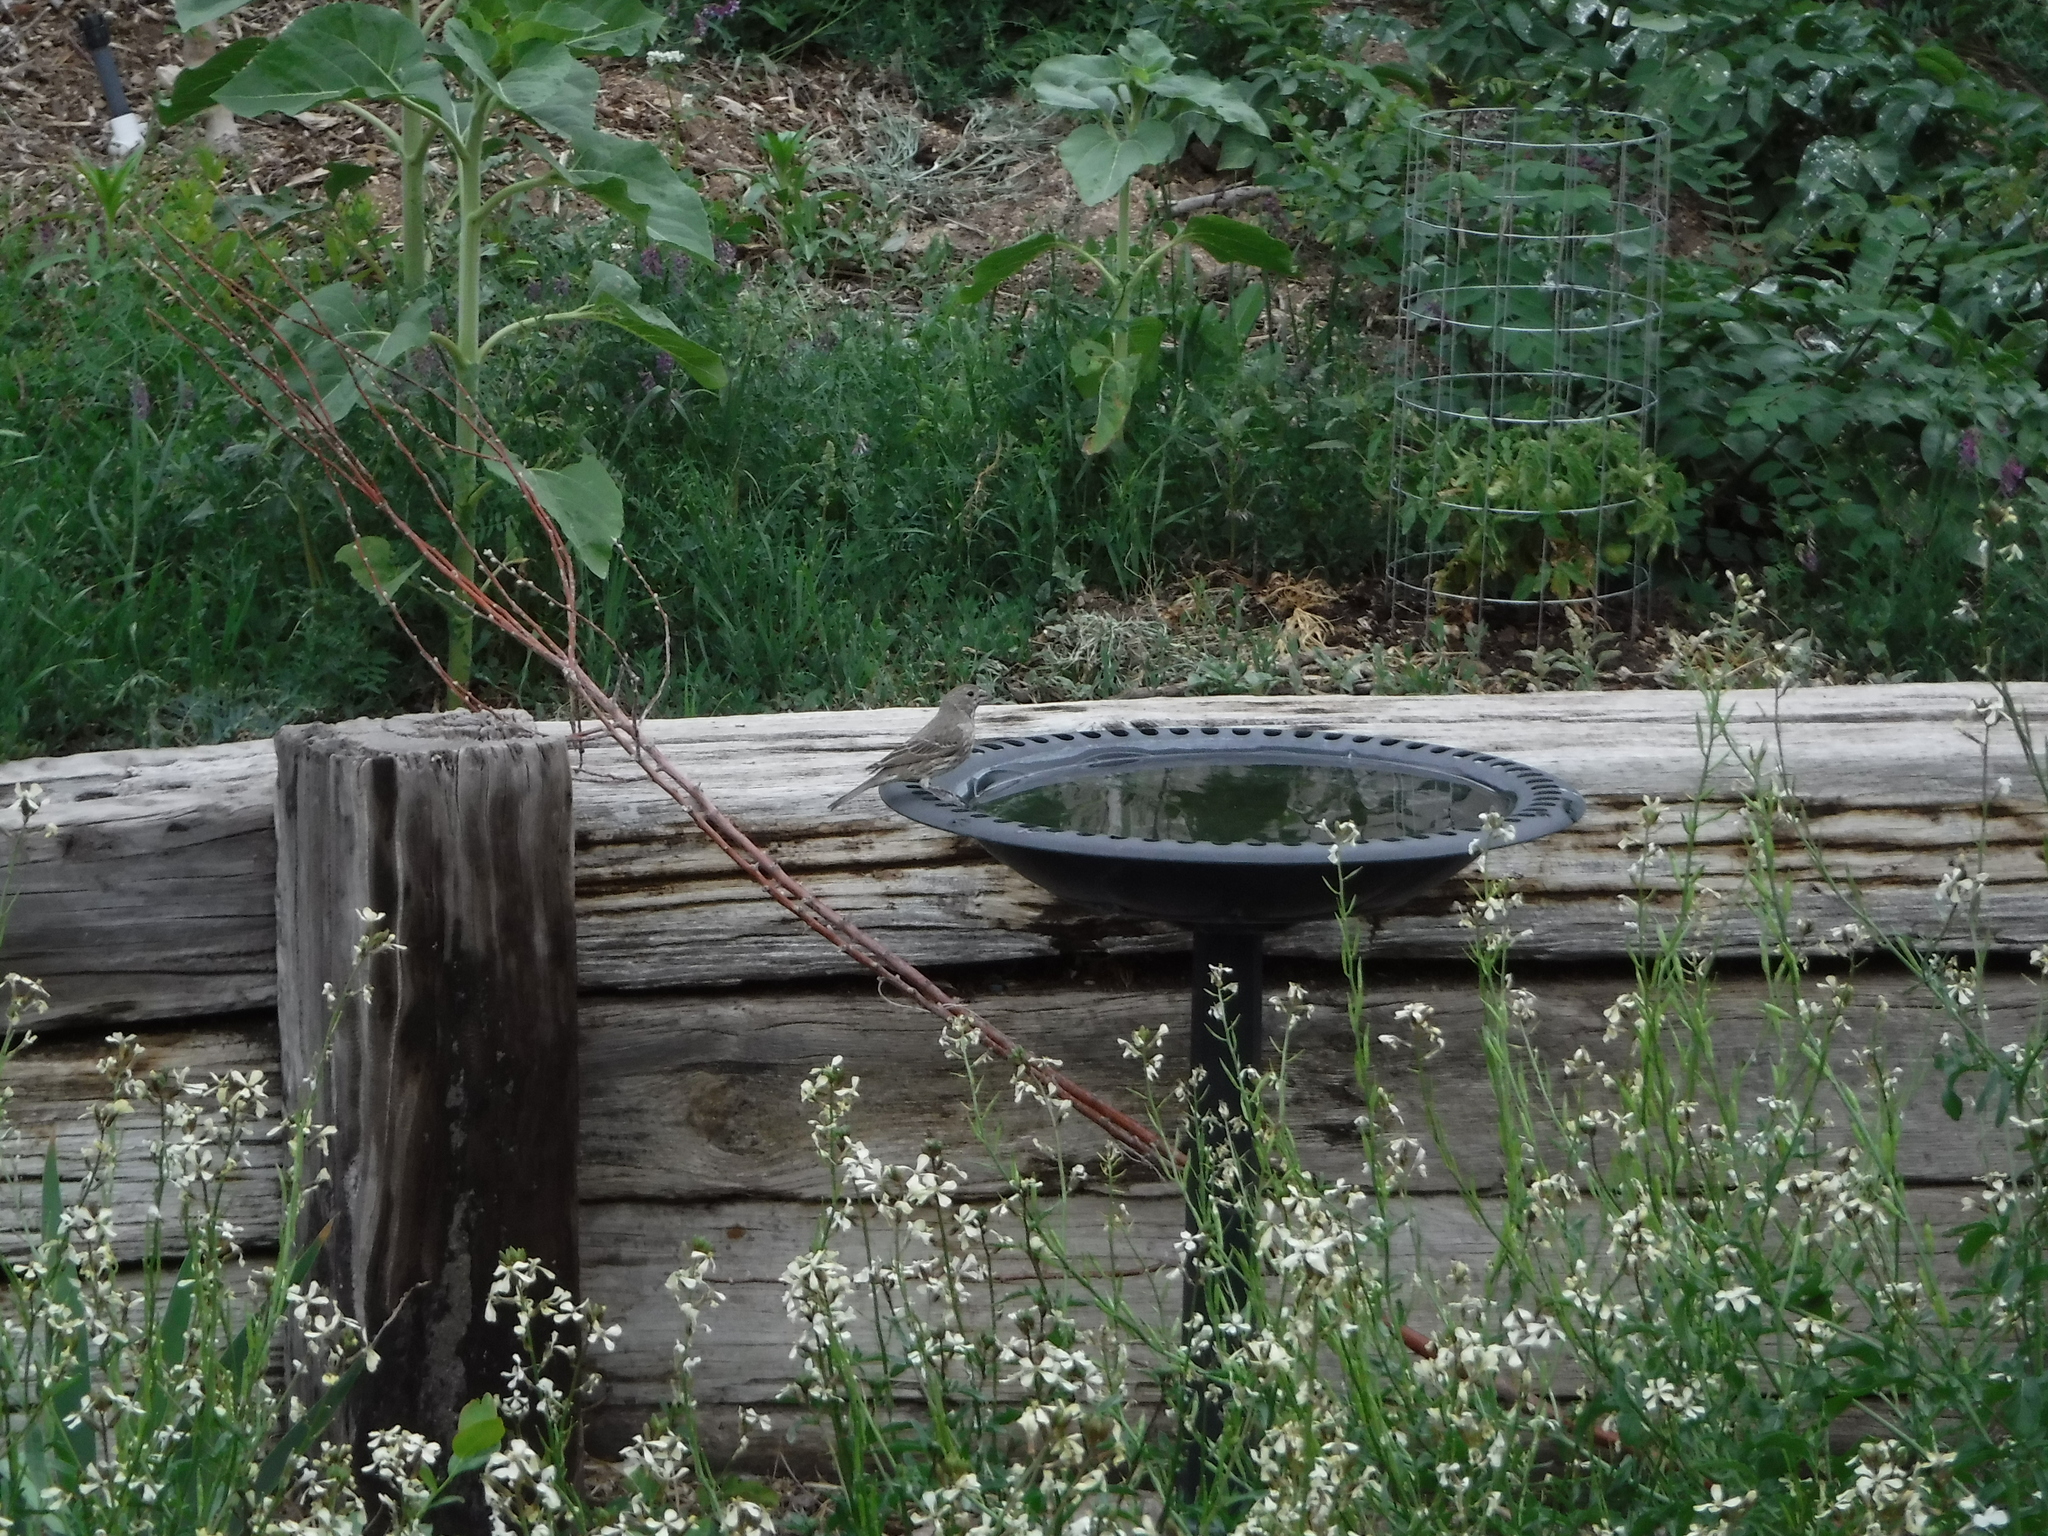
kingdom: Animalia
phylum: Chordata
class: Aves
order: Passeriformes
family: Fringillidae
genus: Haemorhous
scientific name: Haemorhous mexicanus
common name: House finch
